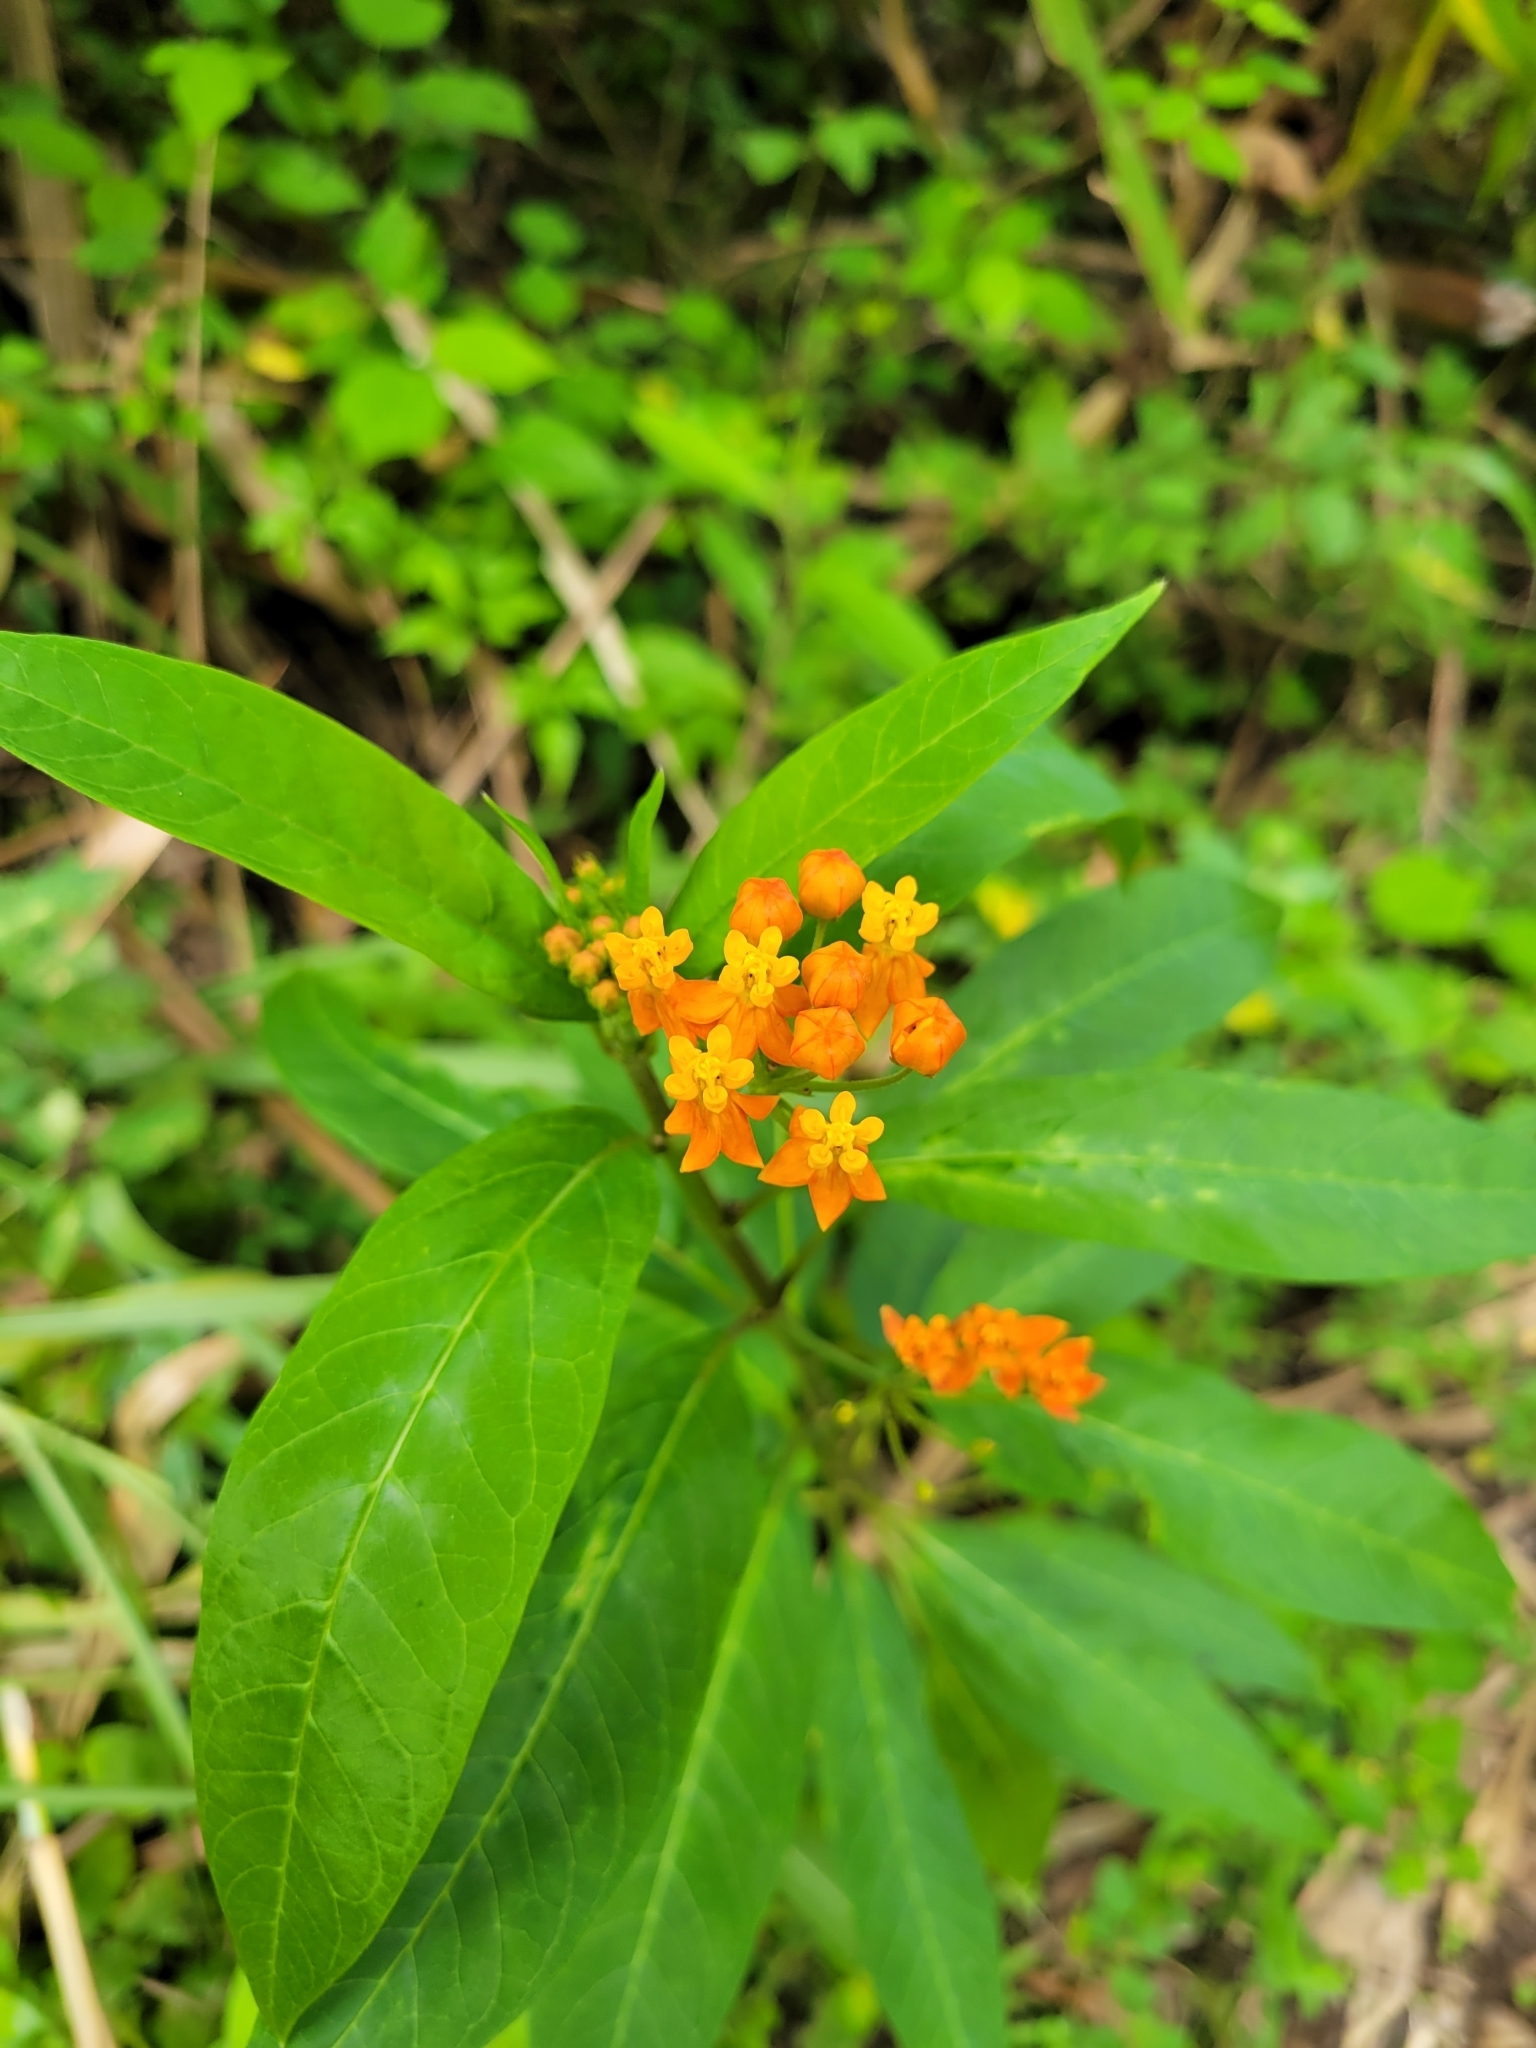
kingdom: Plantae
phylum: Tracheophyta
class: Magnoliopsida
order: Gentianales
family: Apocynaceae
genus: Asclepias
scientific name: Asclepias curassavica
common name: Bloodflower
